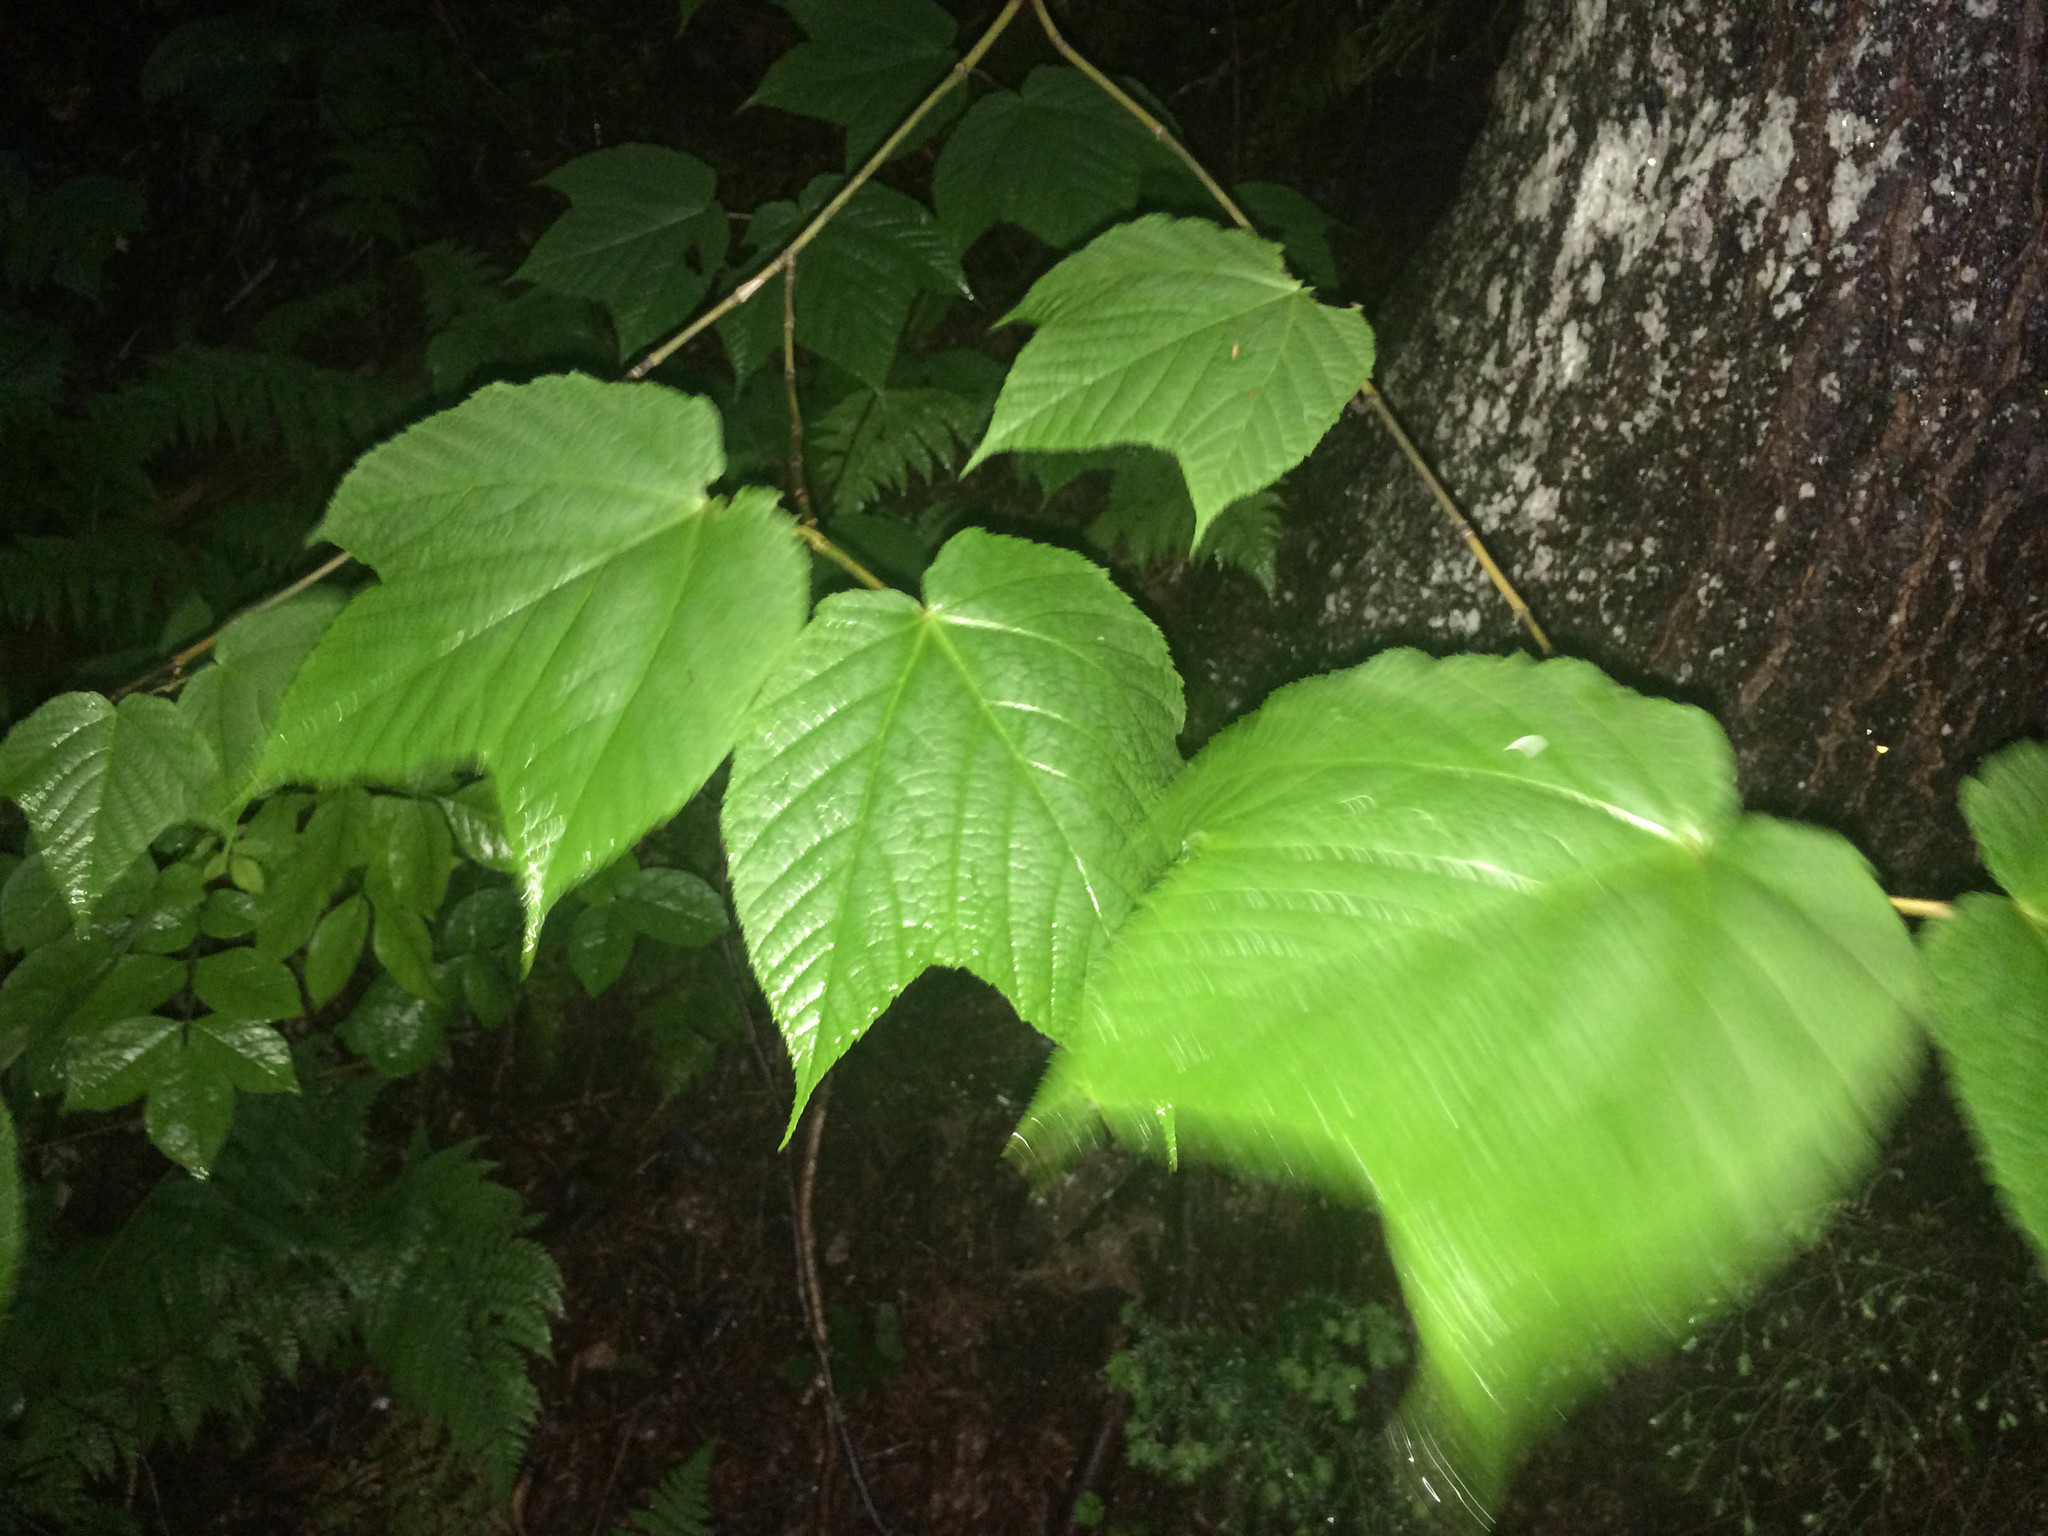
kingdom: Plantae
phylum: Tracheophyta
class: Magnoliopsida
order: Sapindales
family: Sapindaceae
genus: Acer
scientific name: Acer pensylvanicum
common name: Moosewood
